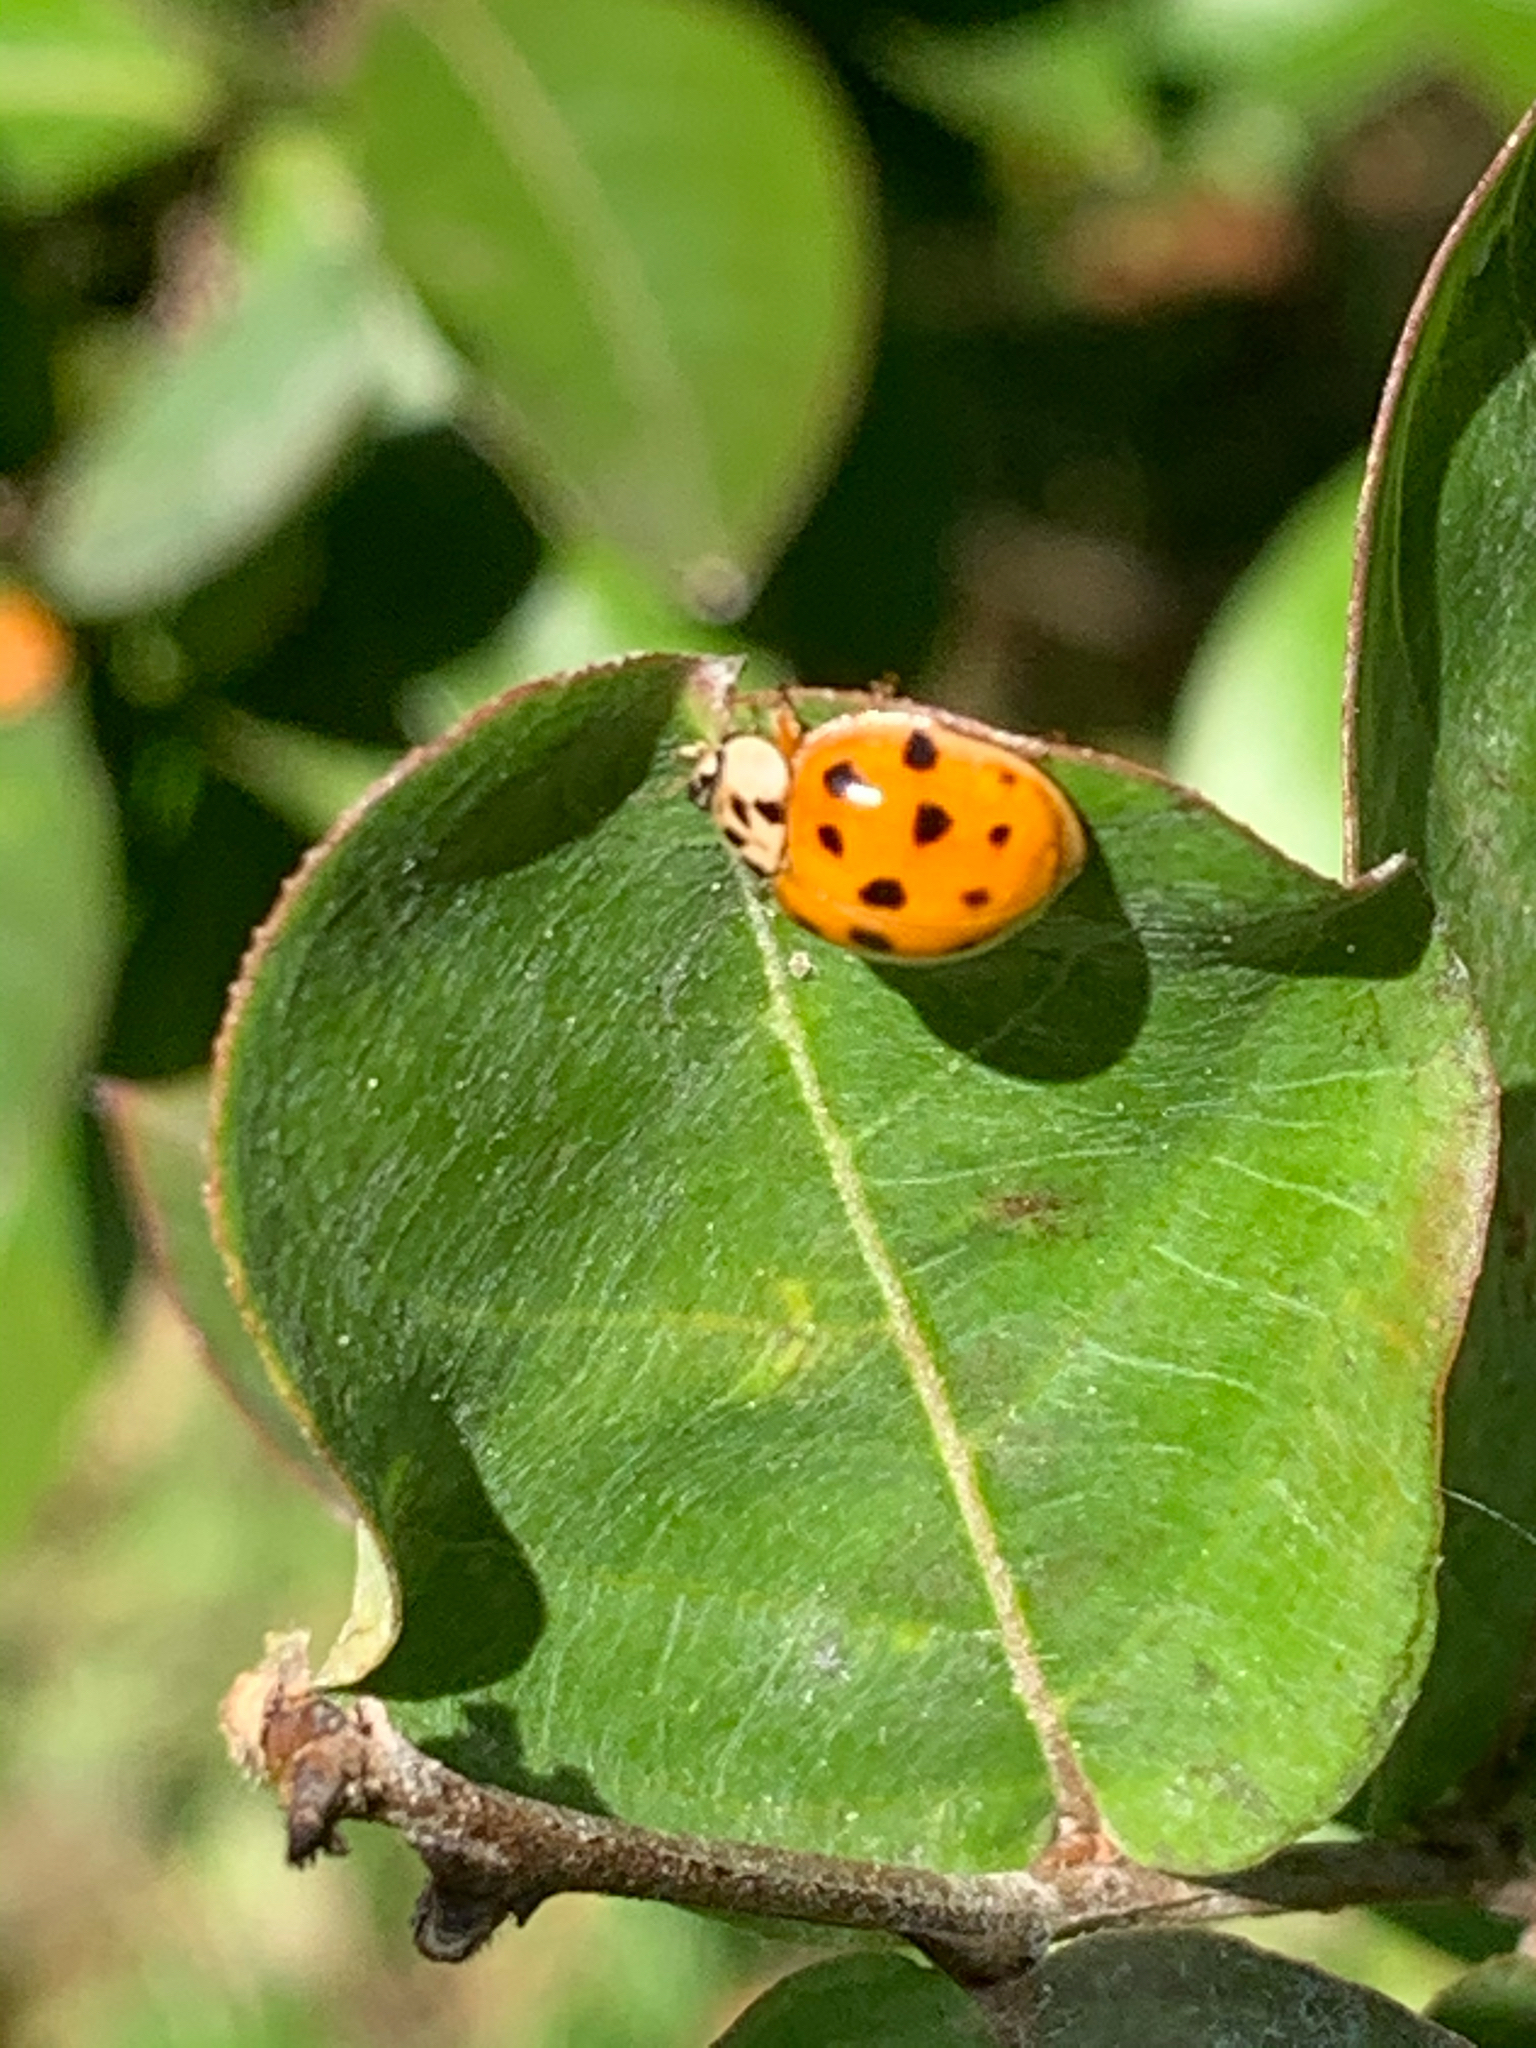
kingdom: Animalia
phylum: Arthropoda
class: Insecta
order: Coleoptera
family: Coccinellidae
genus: Harmonia
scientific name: Harmonia axyridis
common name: Harlequin ladybird
